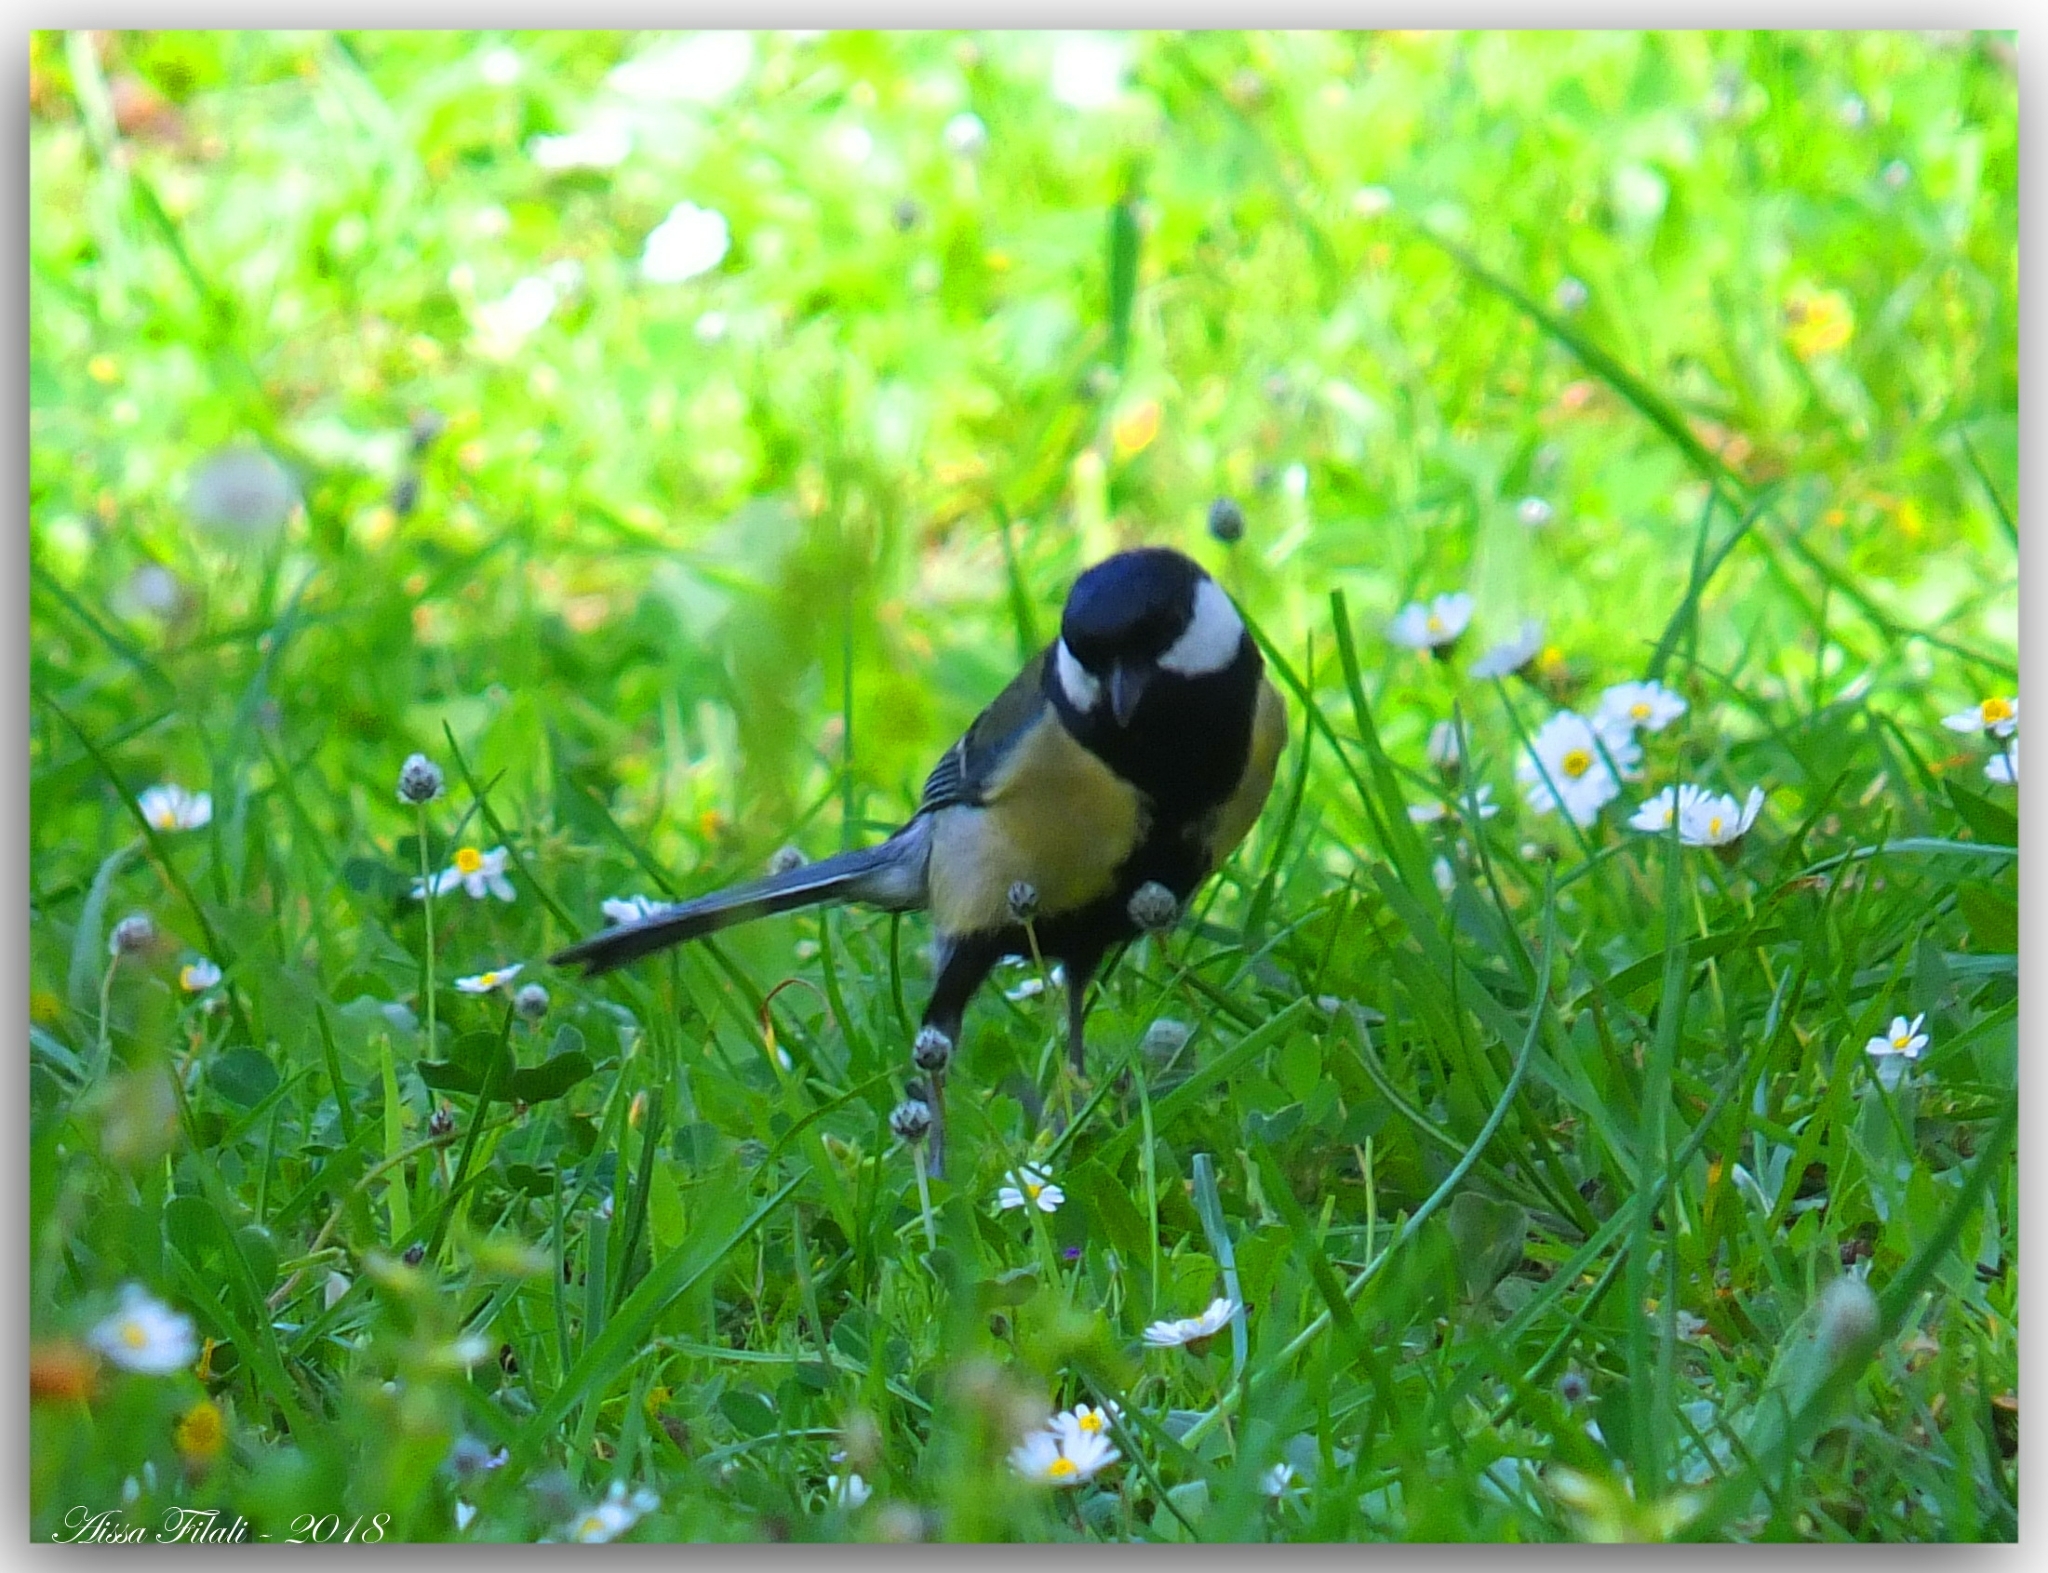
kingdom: Animalia
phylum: Chordata
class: Aves
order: Passeriformes
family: Paridae
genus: Parus
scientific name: Parus major
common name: Great tit
